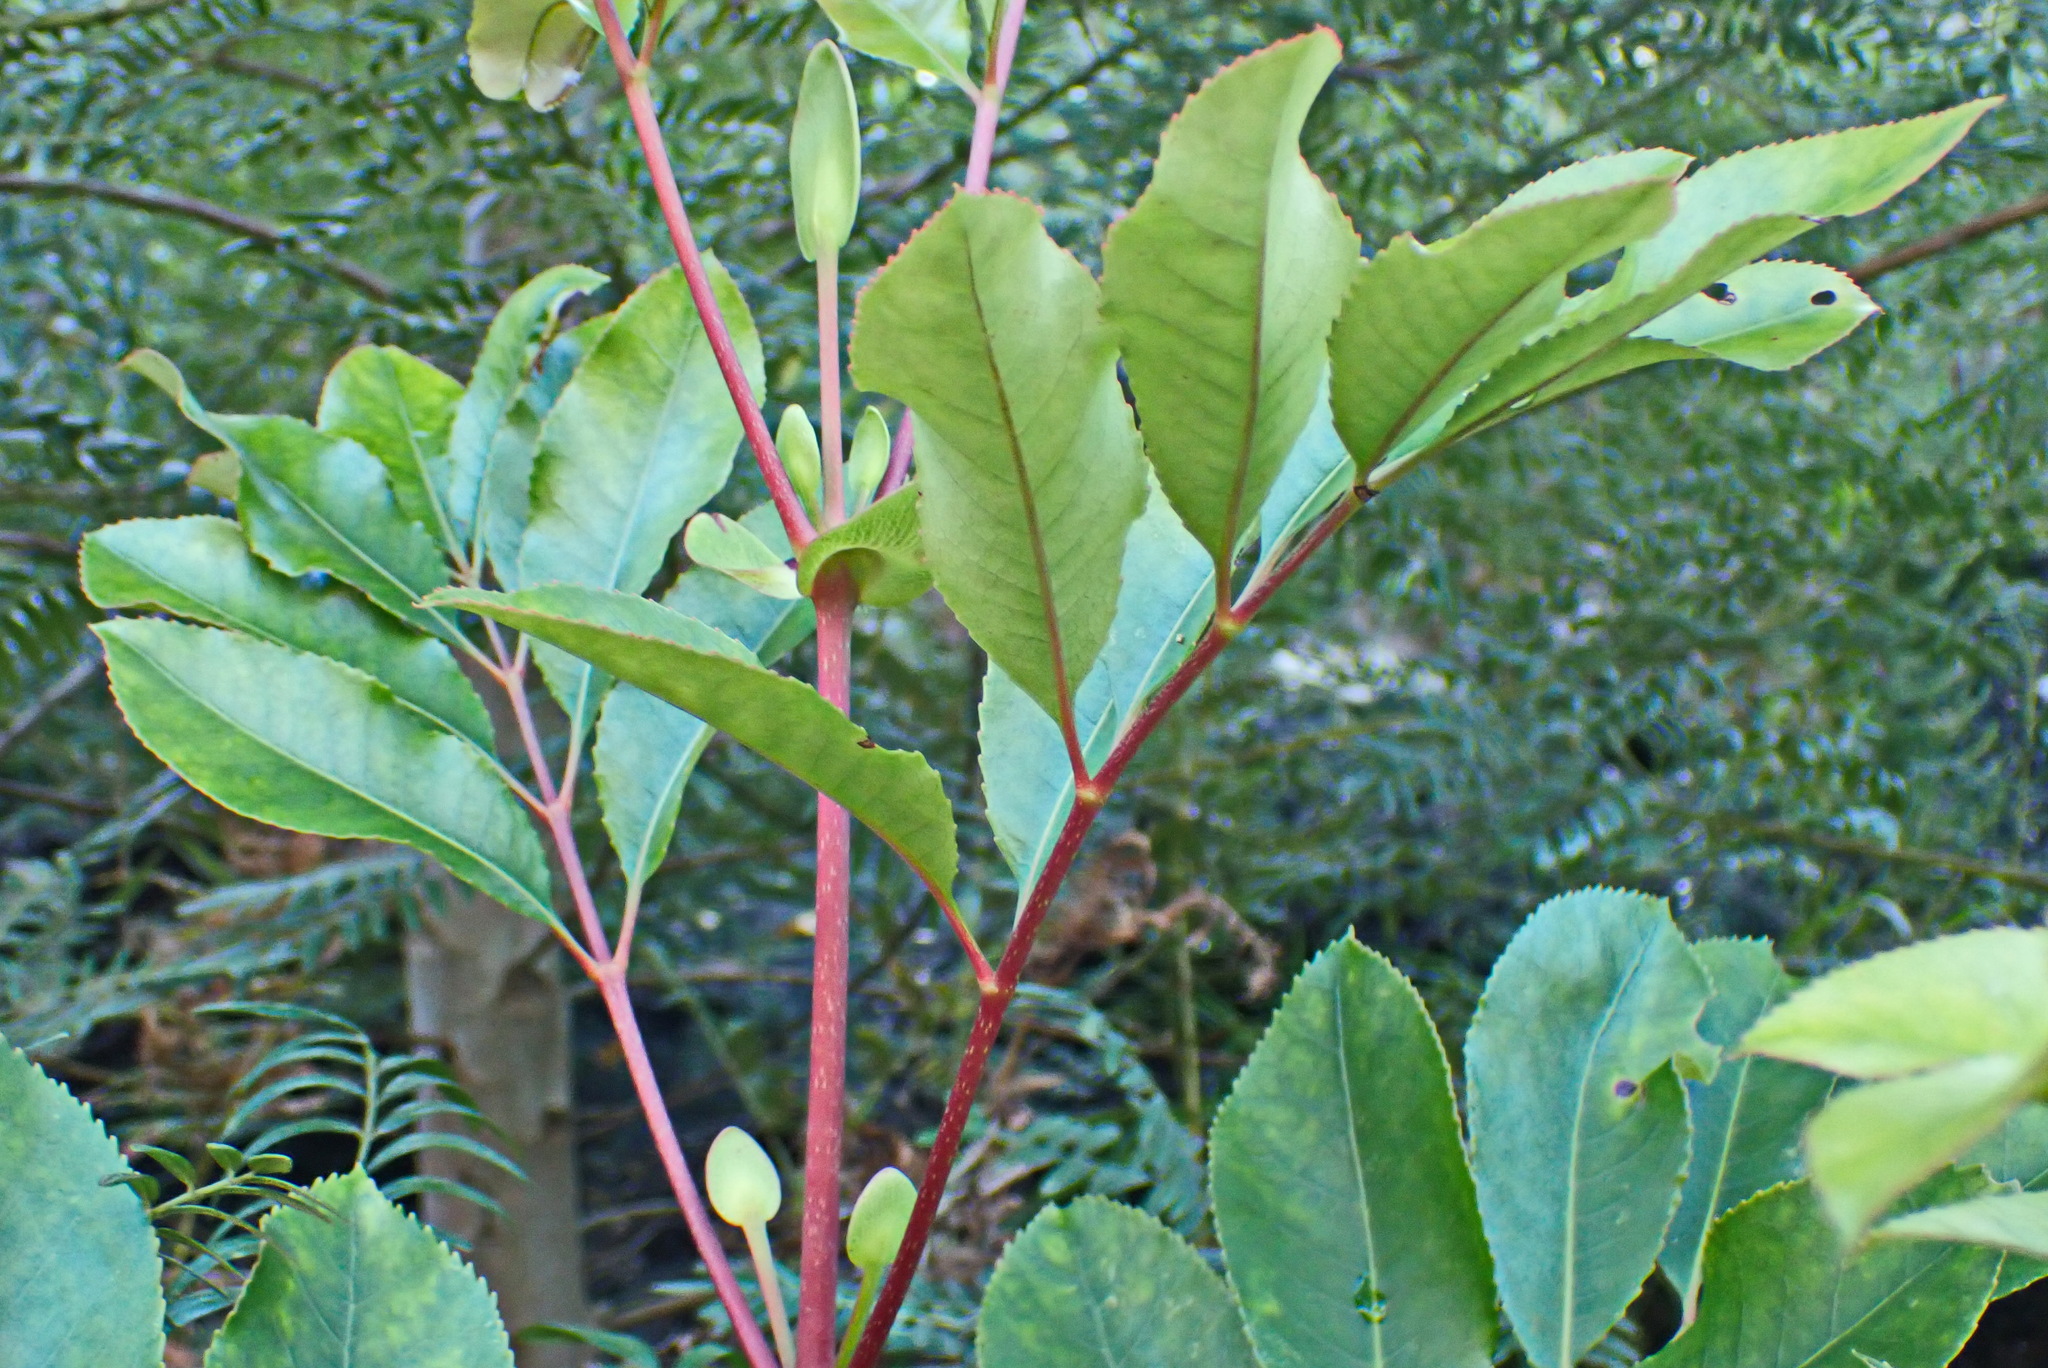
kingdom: Plantae
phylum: Tracheophyta
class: Magnoliopsida
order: Oxalidales
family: Cunoniaceae
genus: Cunonia
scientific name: Cunonia capensis
